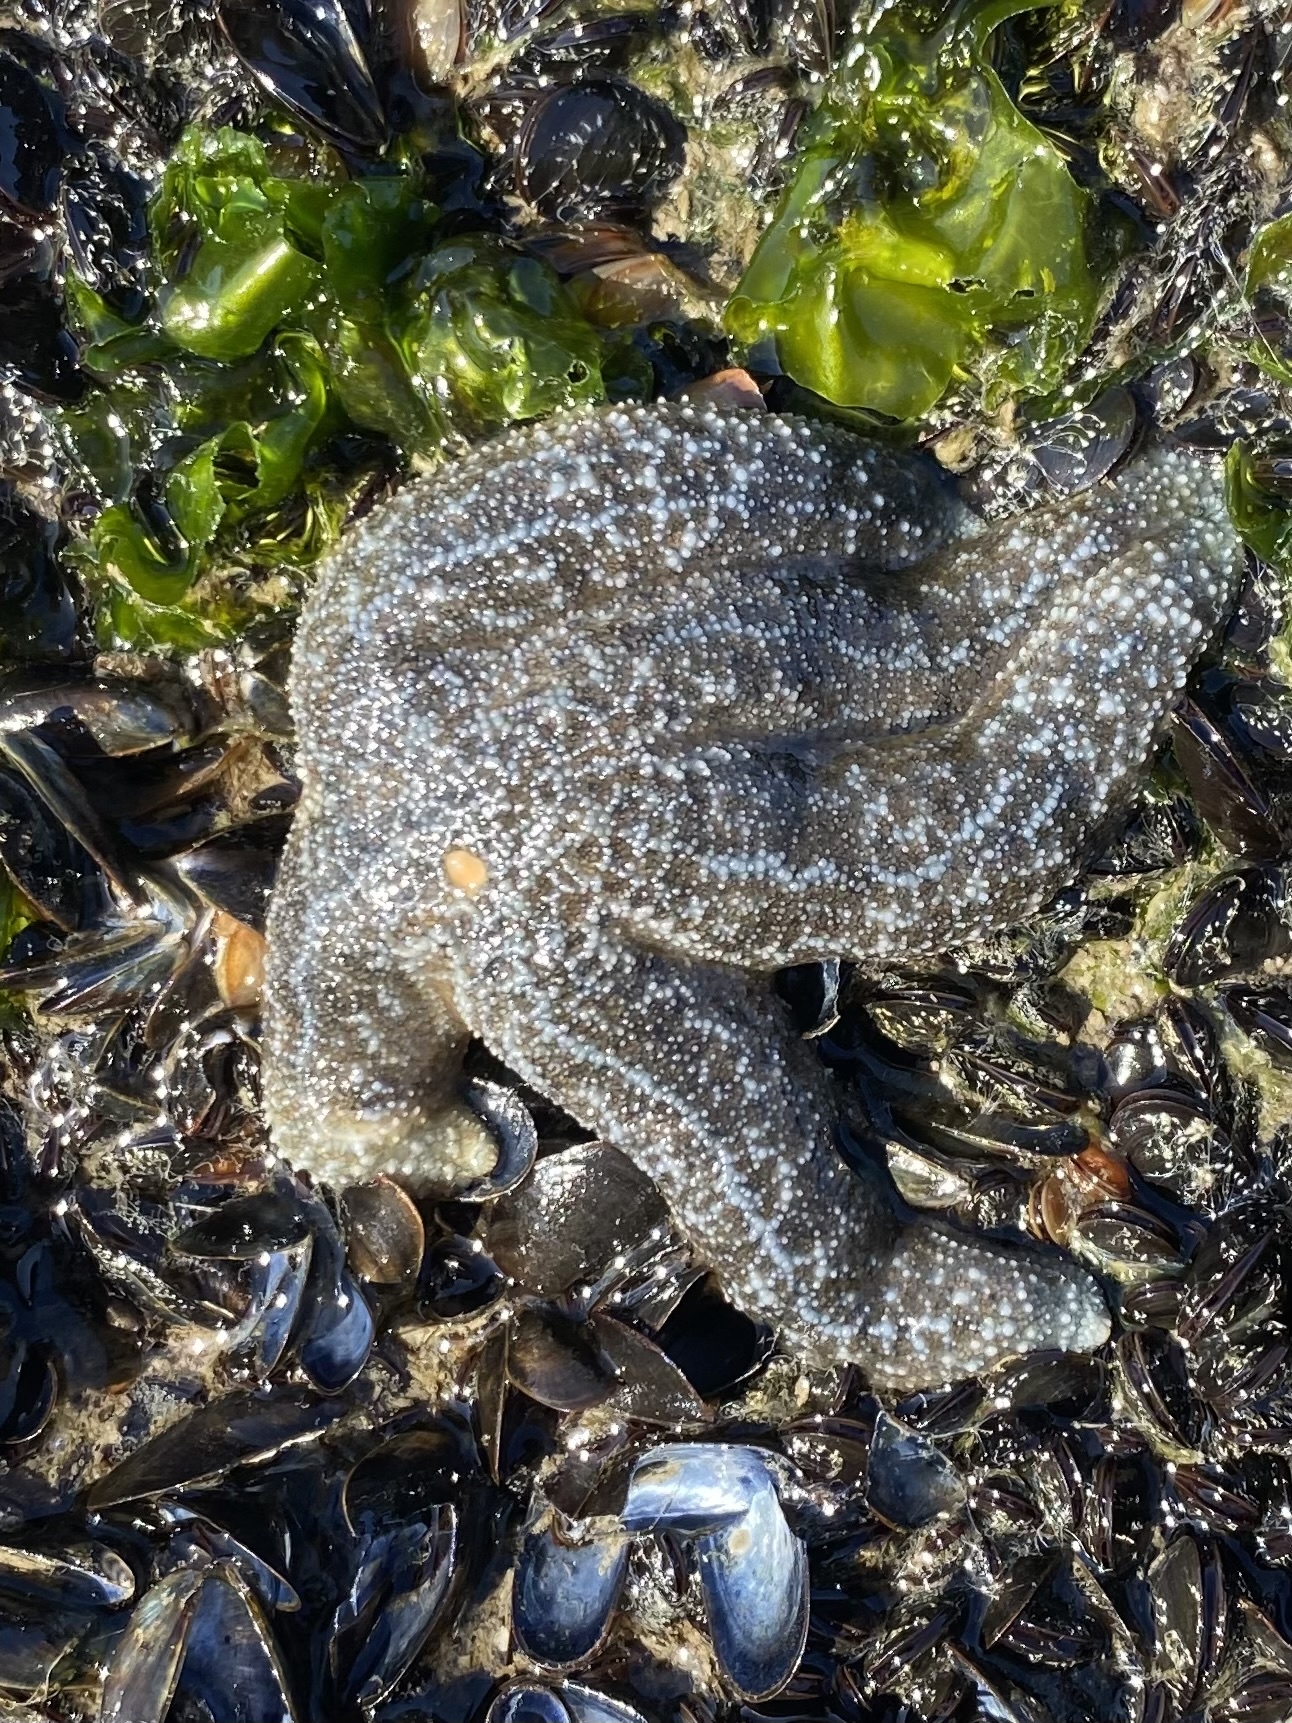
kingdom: Animalia
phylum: Echinodermata
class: Asteroidea
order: Forcipulatida
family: Asteriidae
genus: Evasterias
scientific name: Evasterias troschelii
